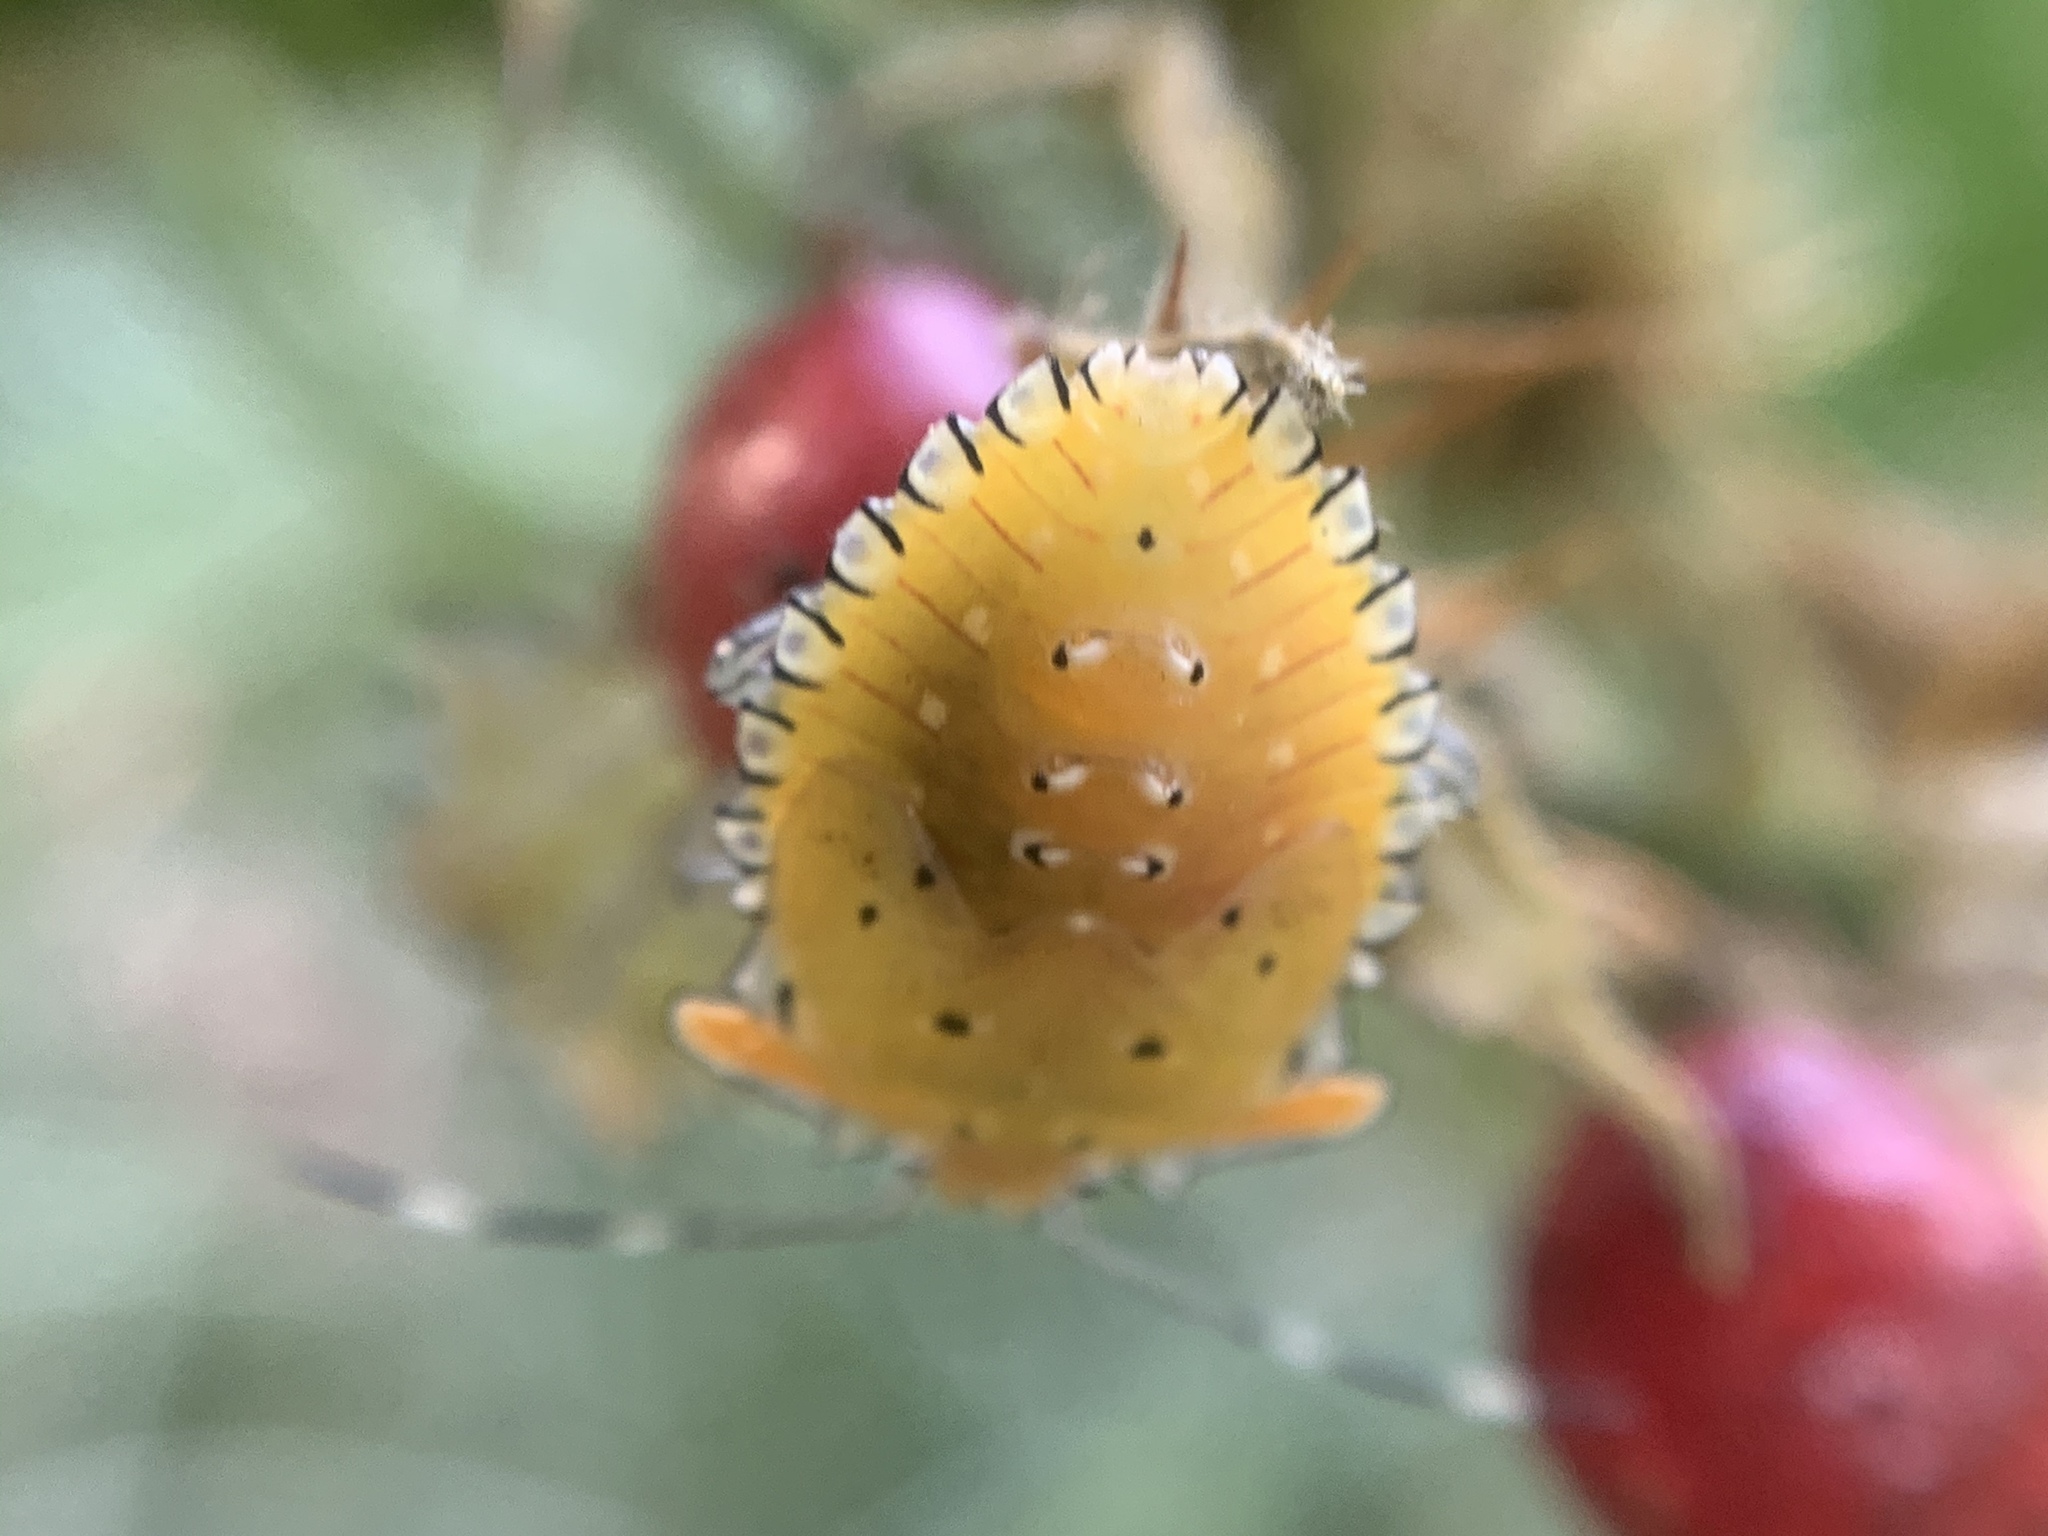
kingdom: Animalia
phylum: Arthropoda
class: Insecta
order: Hemiptera
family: Pentatomidae
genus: Arvelius
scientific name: Arvelius albopunctatus
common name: Tomato stink bug
